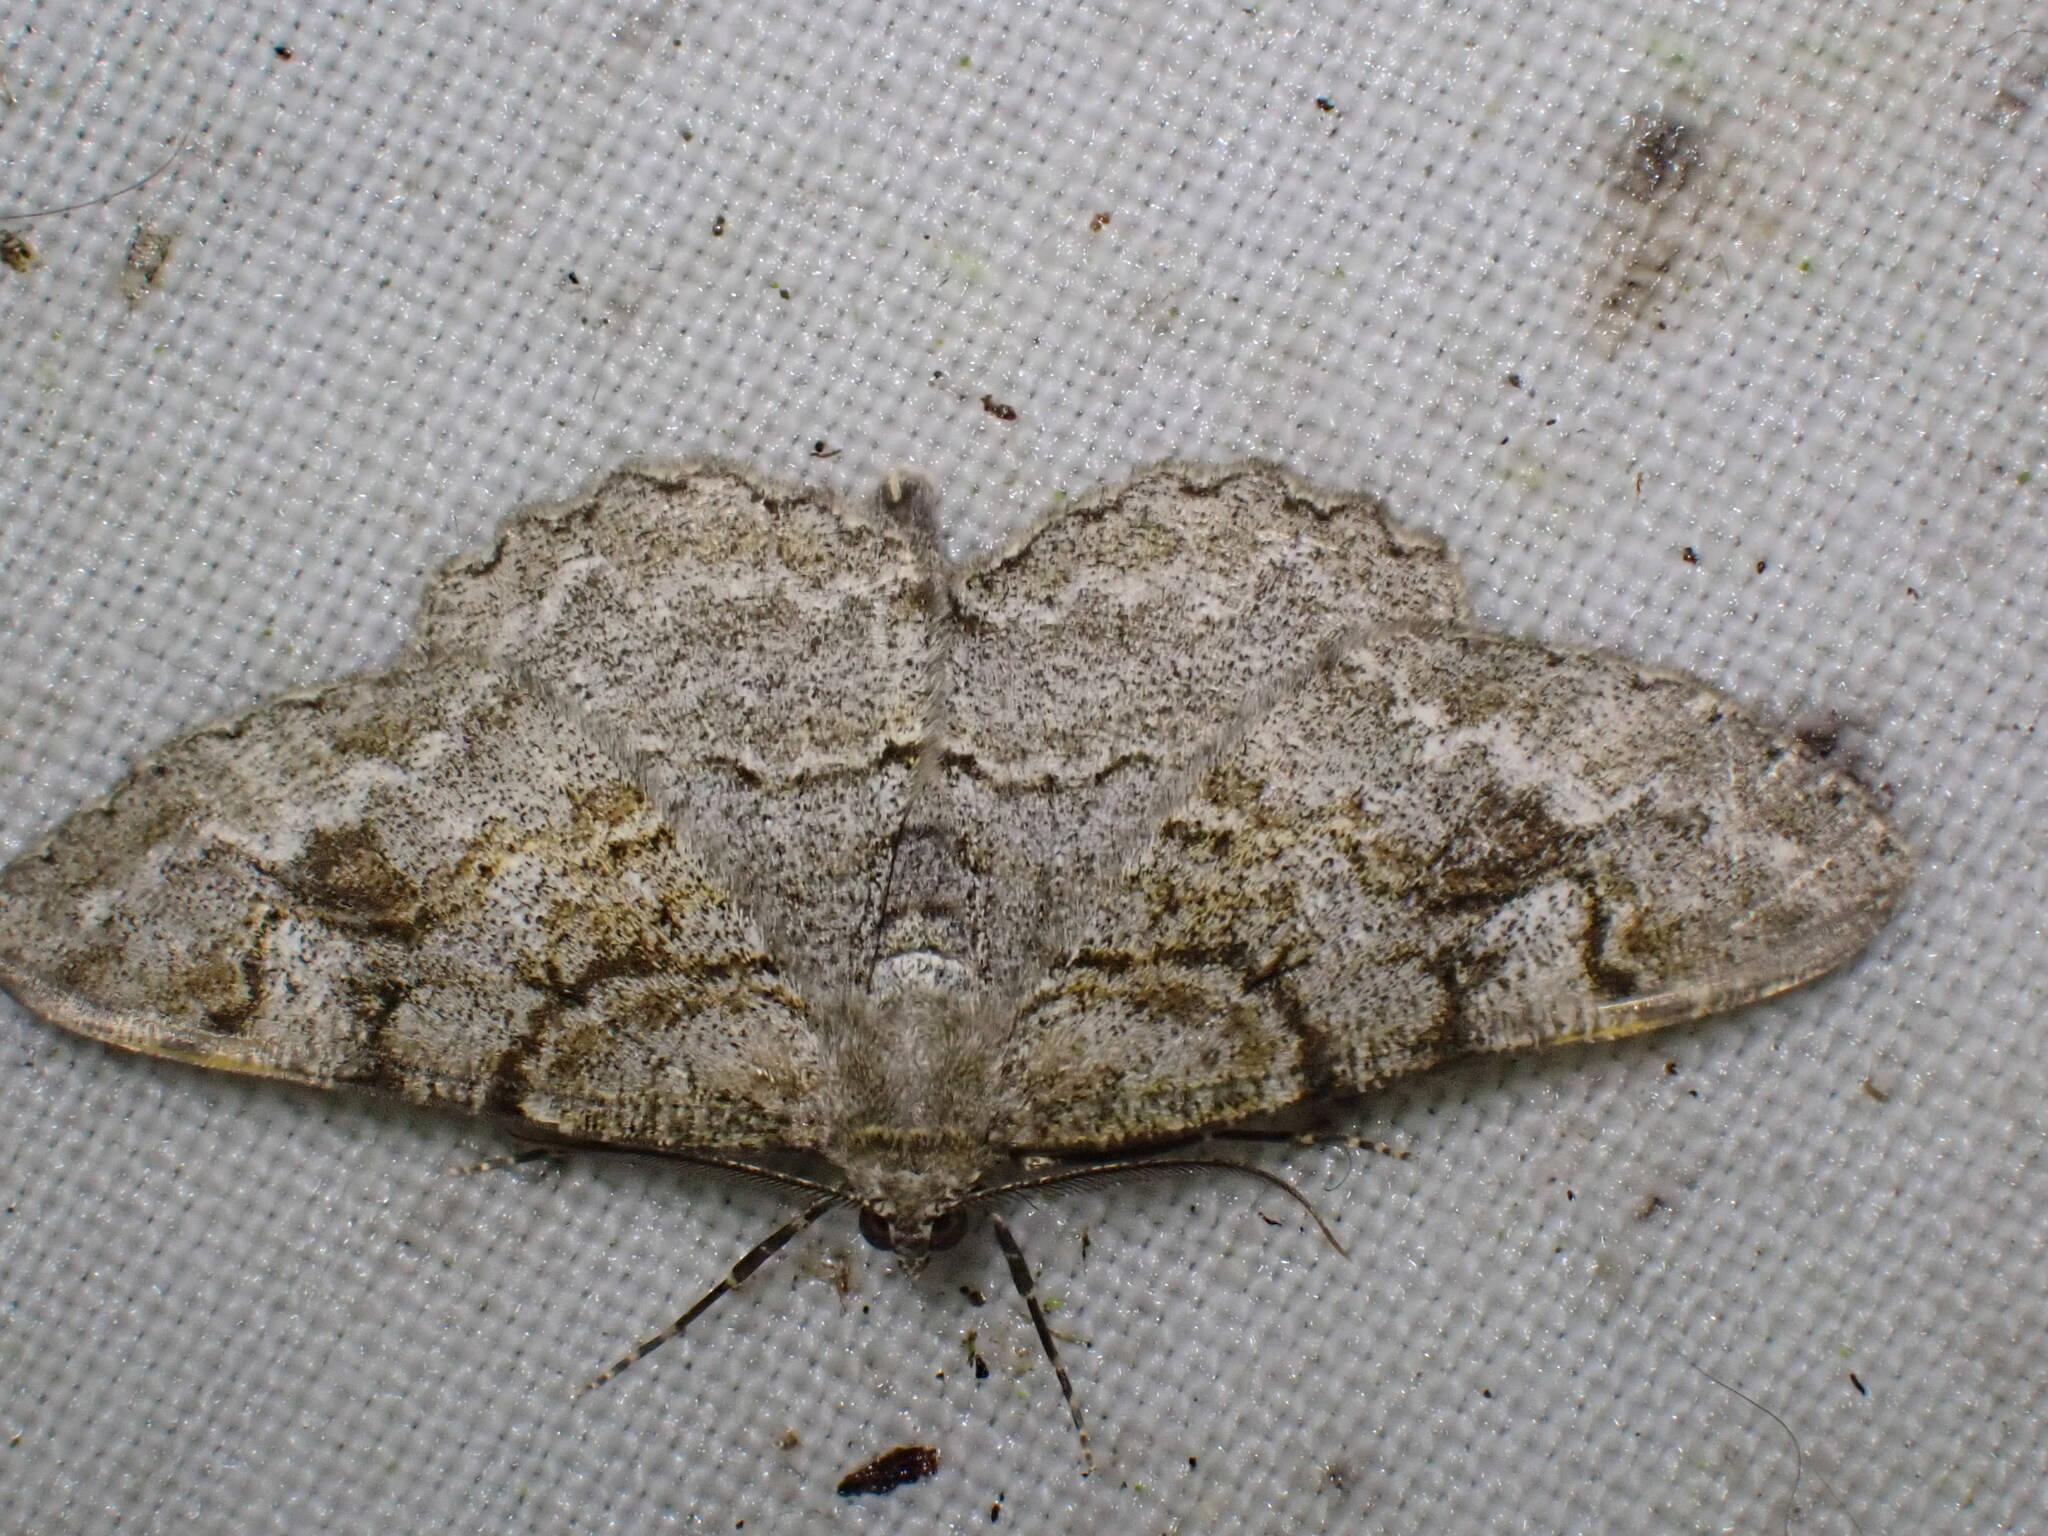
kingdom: Animalia
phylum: Arthropoda
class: Insecta
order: Lepidoptera
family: Geometridae
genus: Alcis
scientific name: Alcis repandata
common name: Mottled beauty
